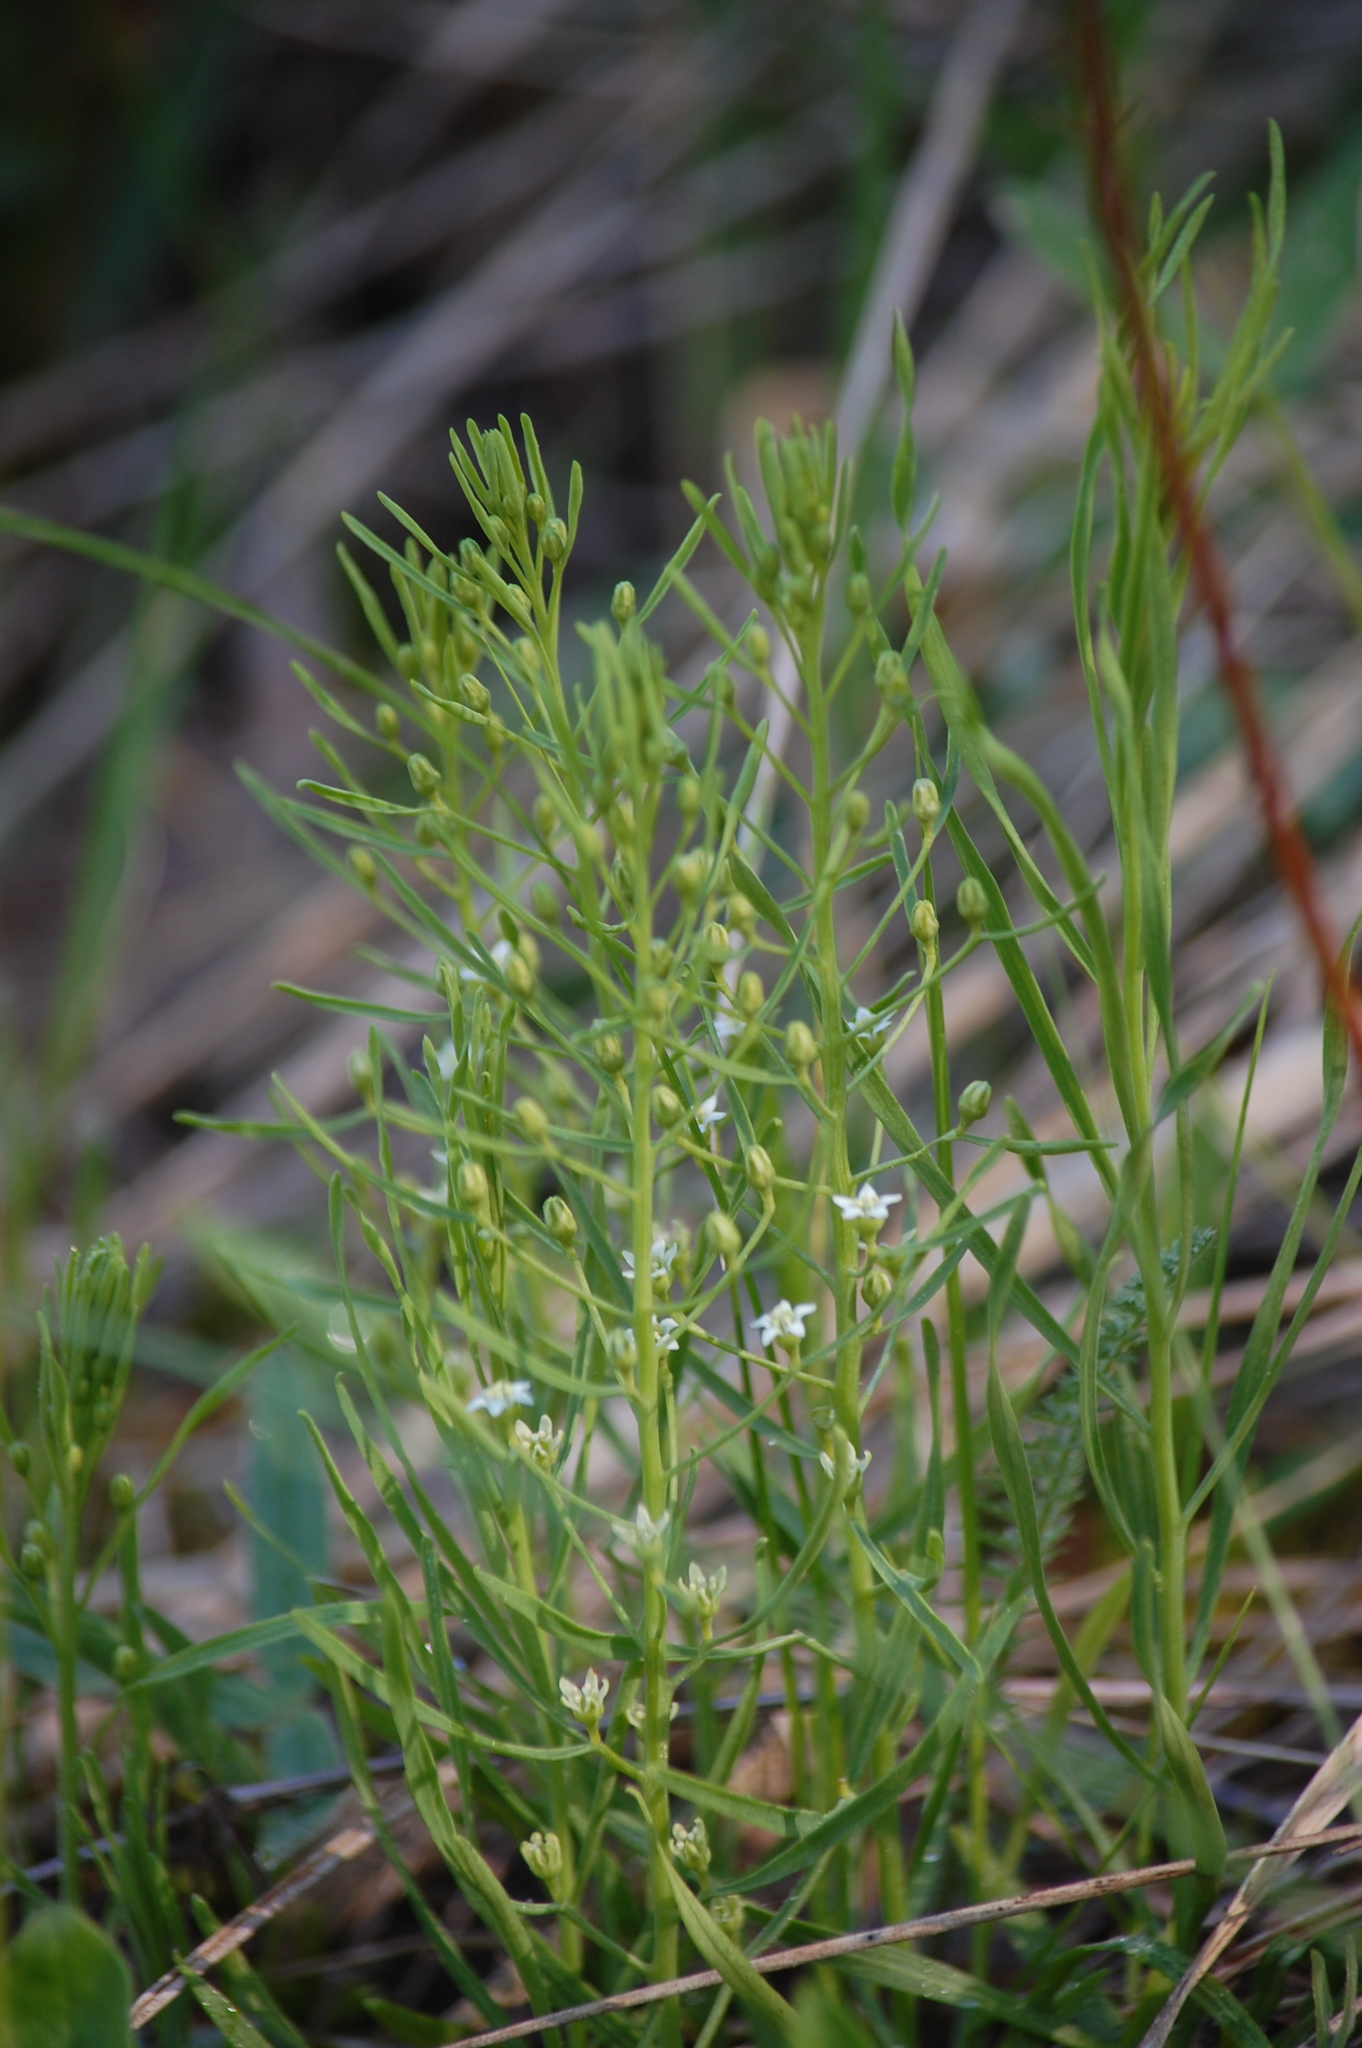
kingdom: Plantae
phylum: Tracheophyta
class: Magnoliopsida
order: Santalales
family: Thesiaceae
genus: Thesium
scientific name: Thesium ebracteatum
